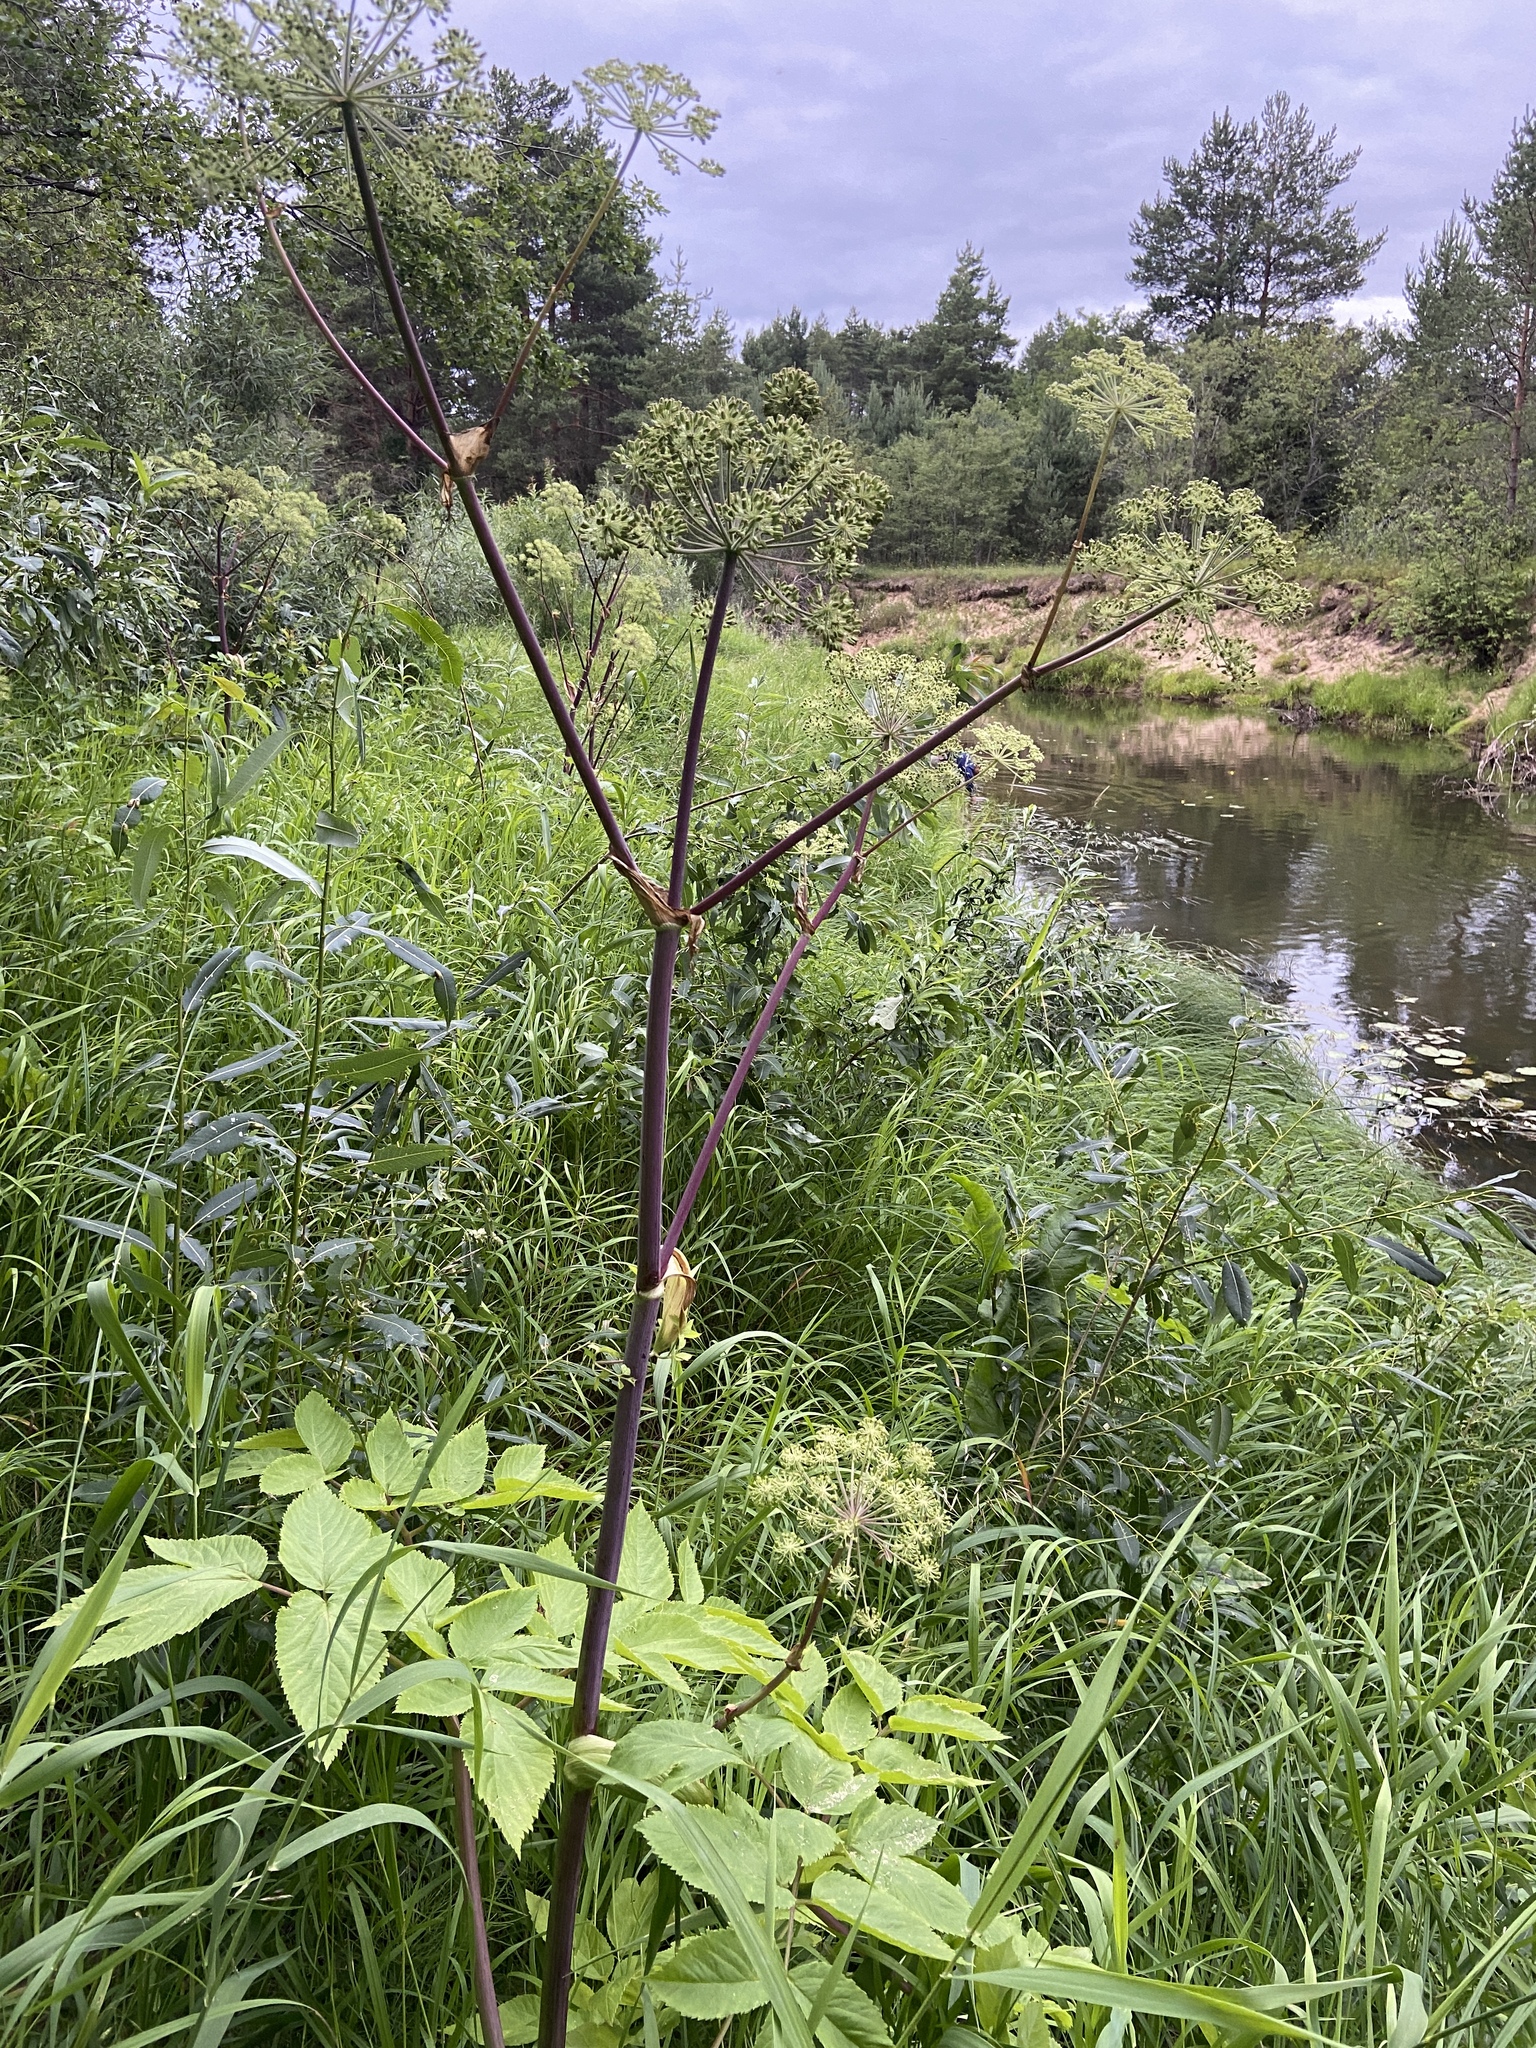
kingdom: Plantae
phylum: Tracheophyta
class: Magnoliopsida
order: Apiales
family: Apiaceae
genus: Angelica
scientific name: Angelica archangelica
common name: Garden angelica
